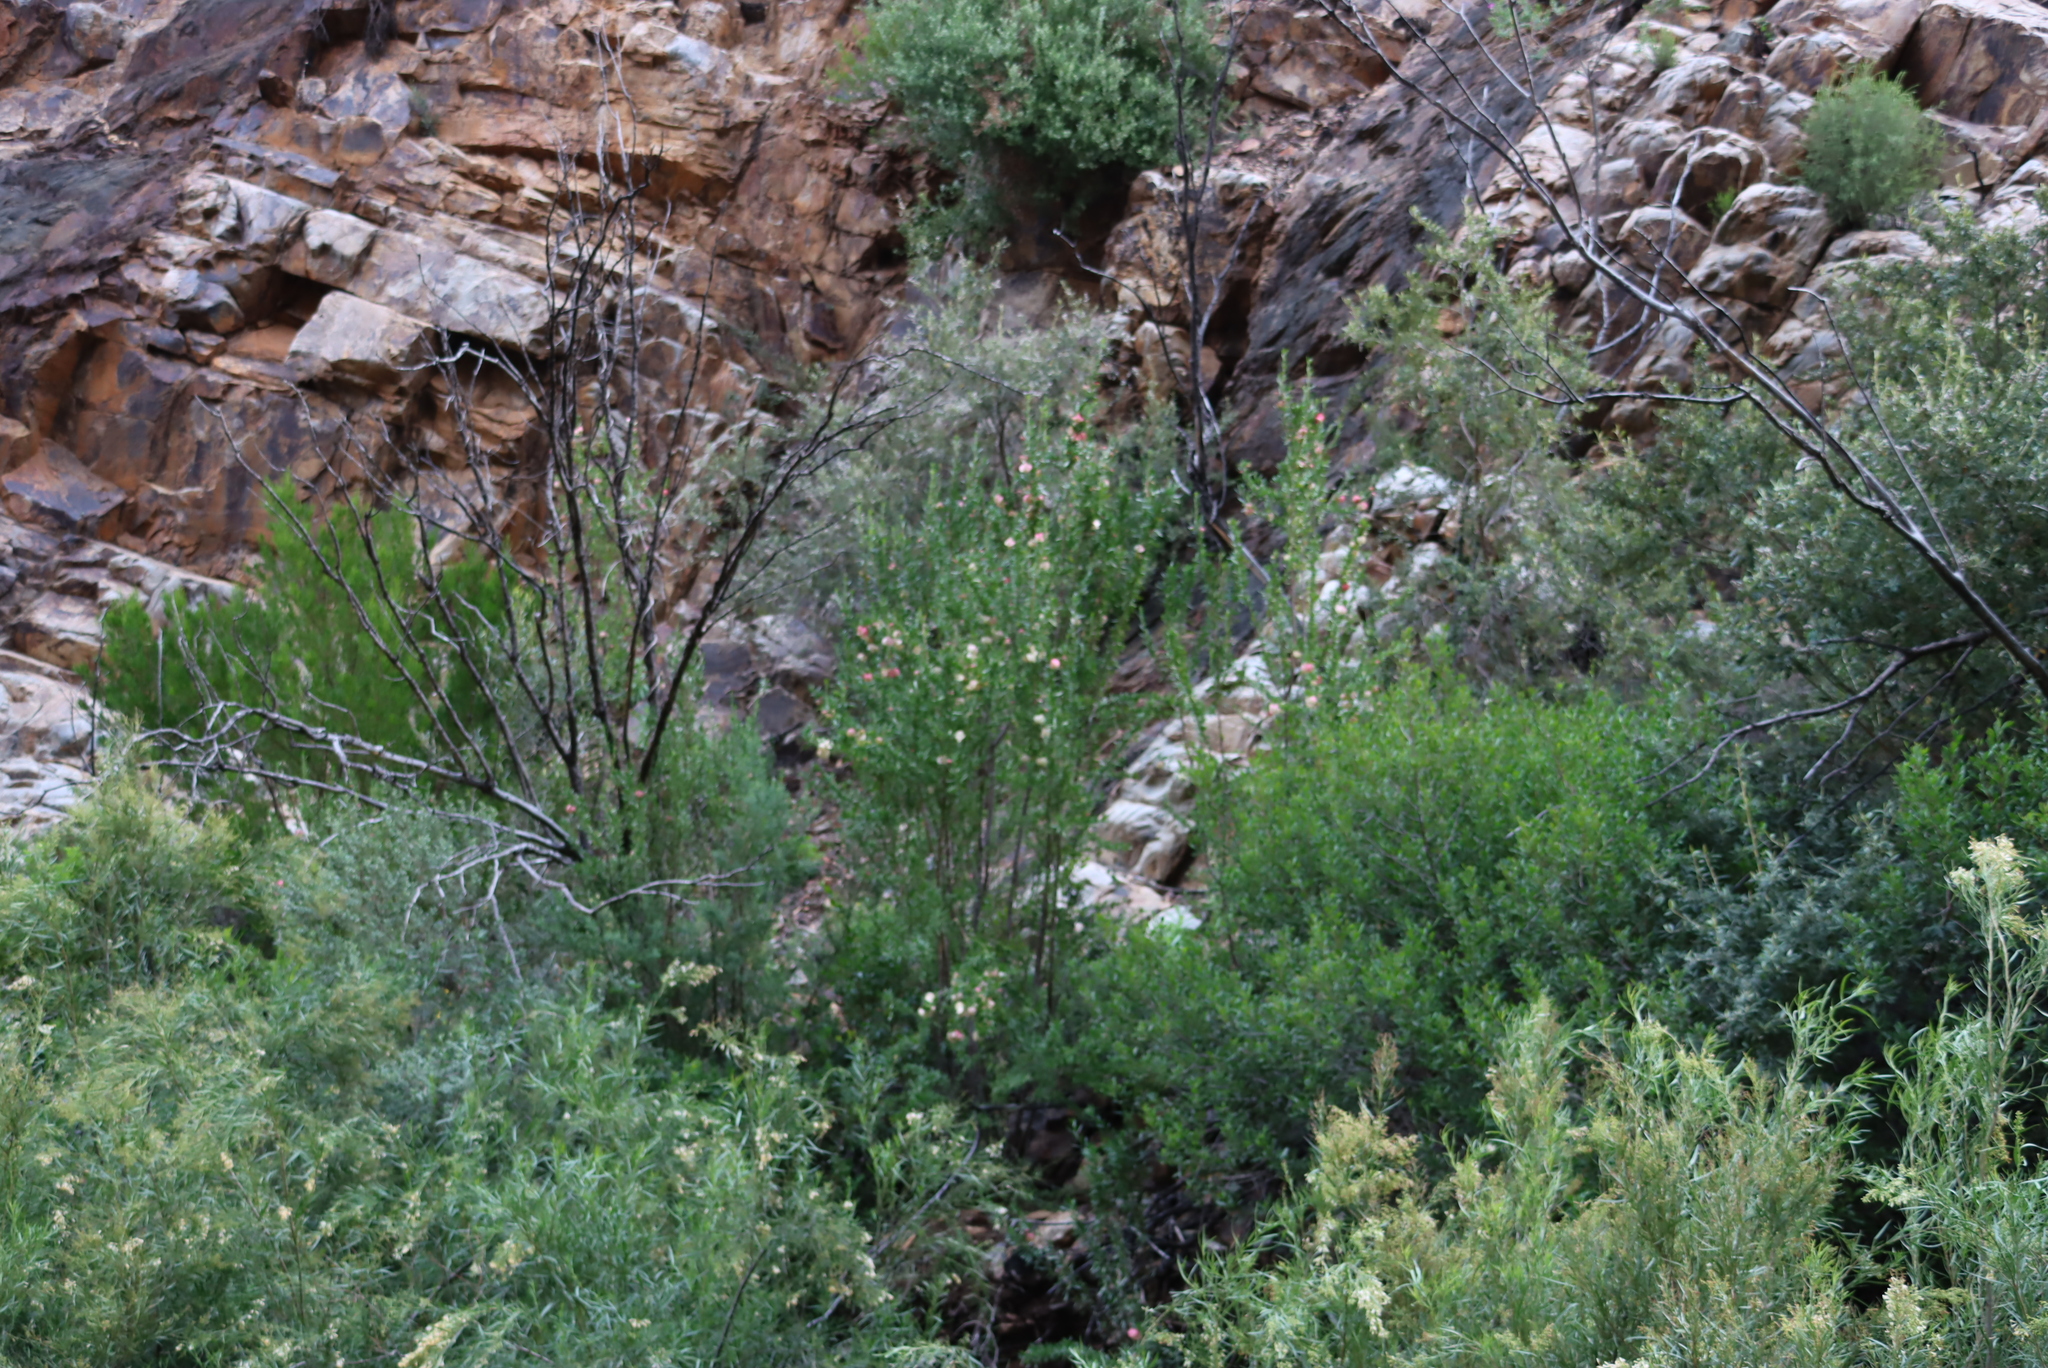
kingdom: Plantae
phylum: Tracheophyta
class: Magnoliopsida
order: Sapindales
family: Meliaceae
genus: Nymania
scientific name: Nymania capensis
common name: Chinese lantern tree
